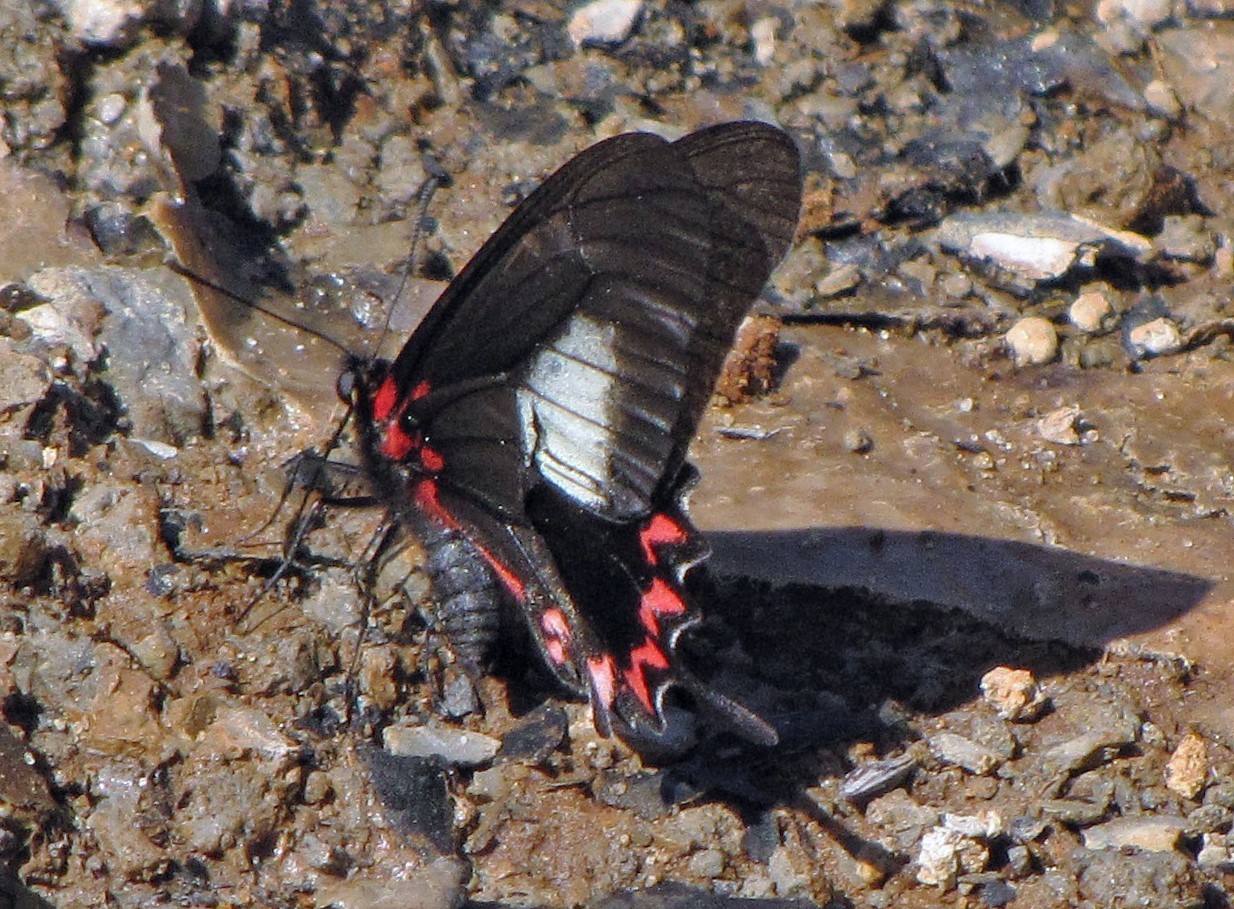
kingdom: Animalia
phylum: Arthropoda
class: Insecta
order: Lepidoptera
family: Papilionidae
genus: Mimoides
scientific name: Mimoides lysithous
